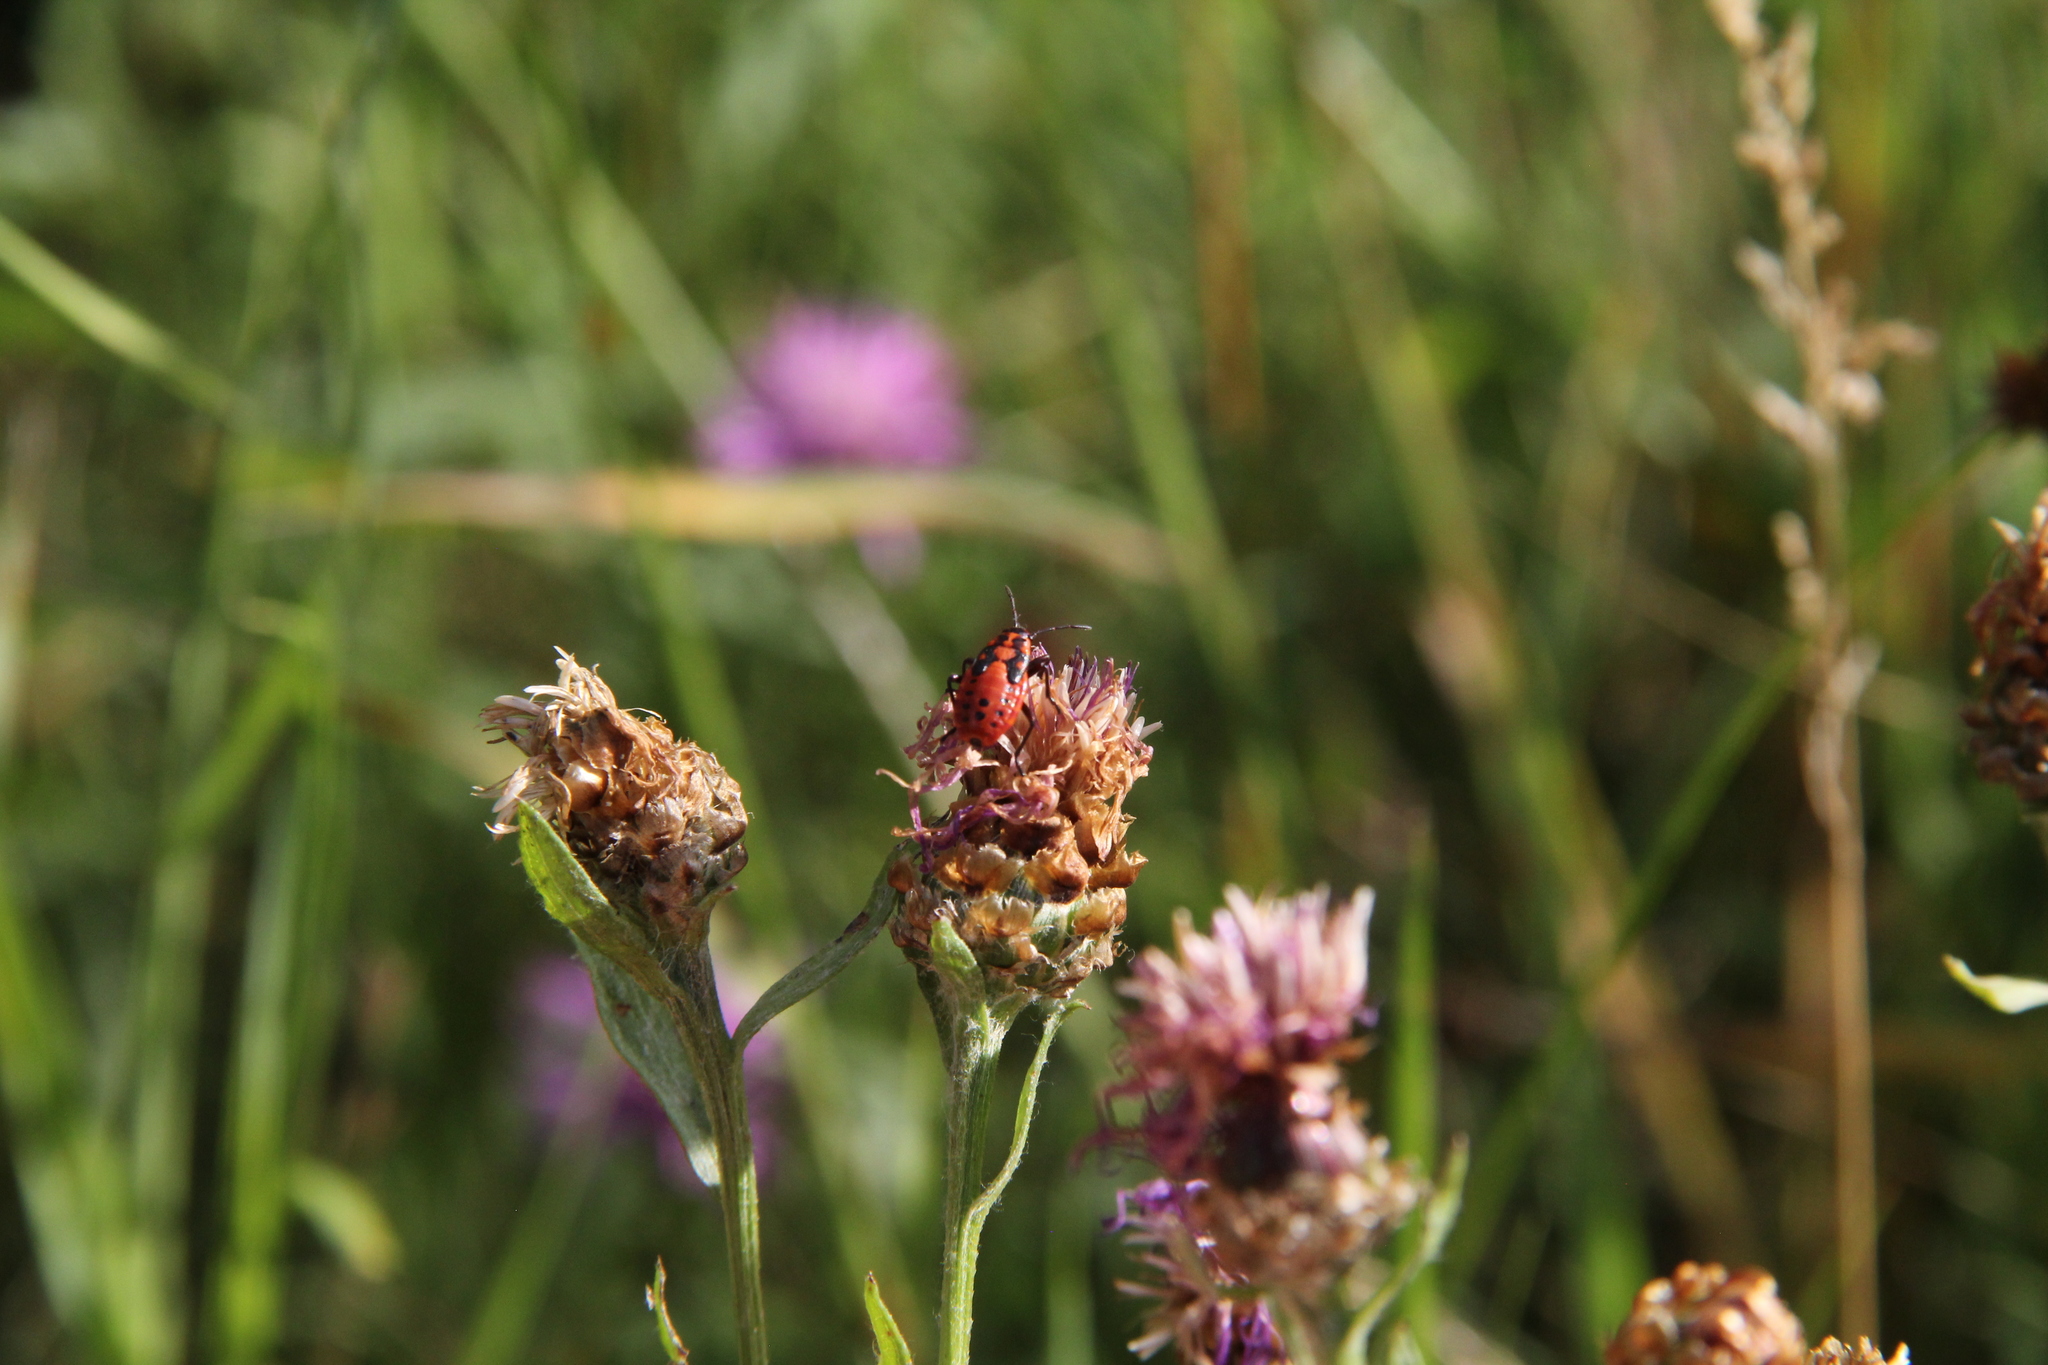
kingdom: Animalia
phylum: Arthropoda
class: Insecta
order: Hemiptera
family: Lygaeidae
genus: Spilostethus
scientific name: Spilostethus saxatilis
